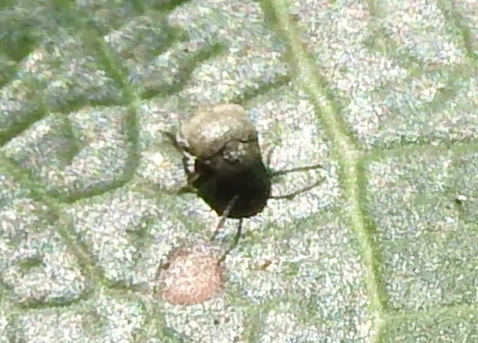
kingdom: Animalia
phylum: Arthropoda
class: Insecta
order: Coleoptera
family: Bruchidae
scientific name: Bruchidae
